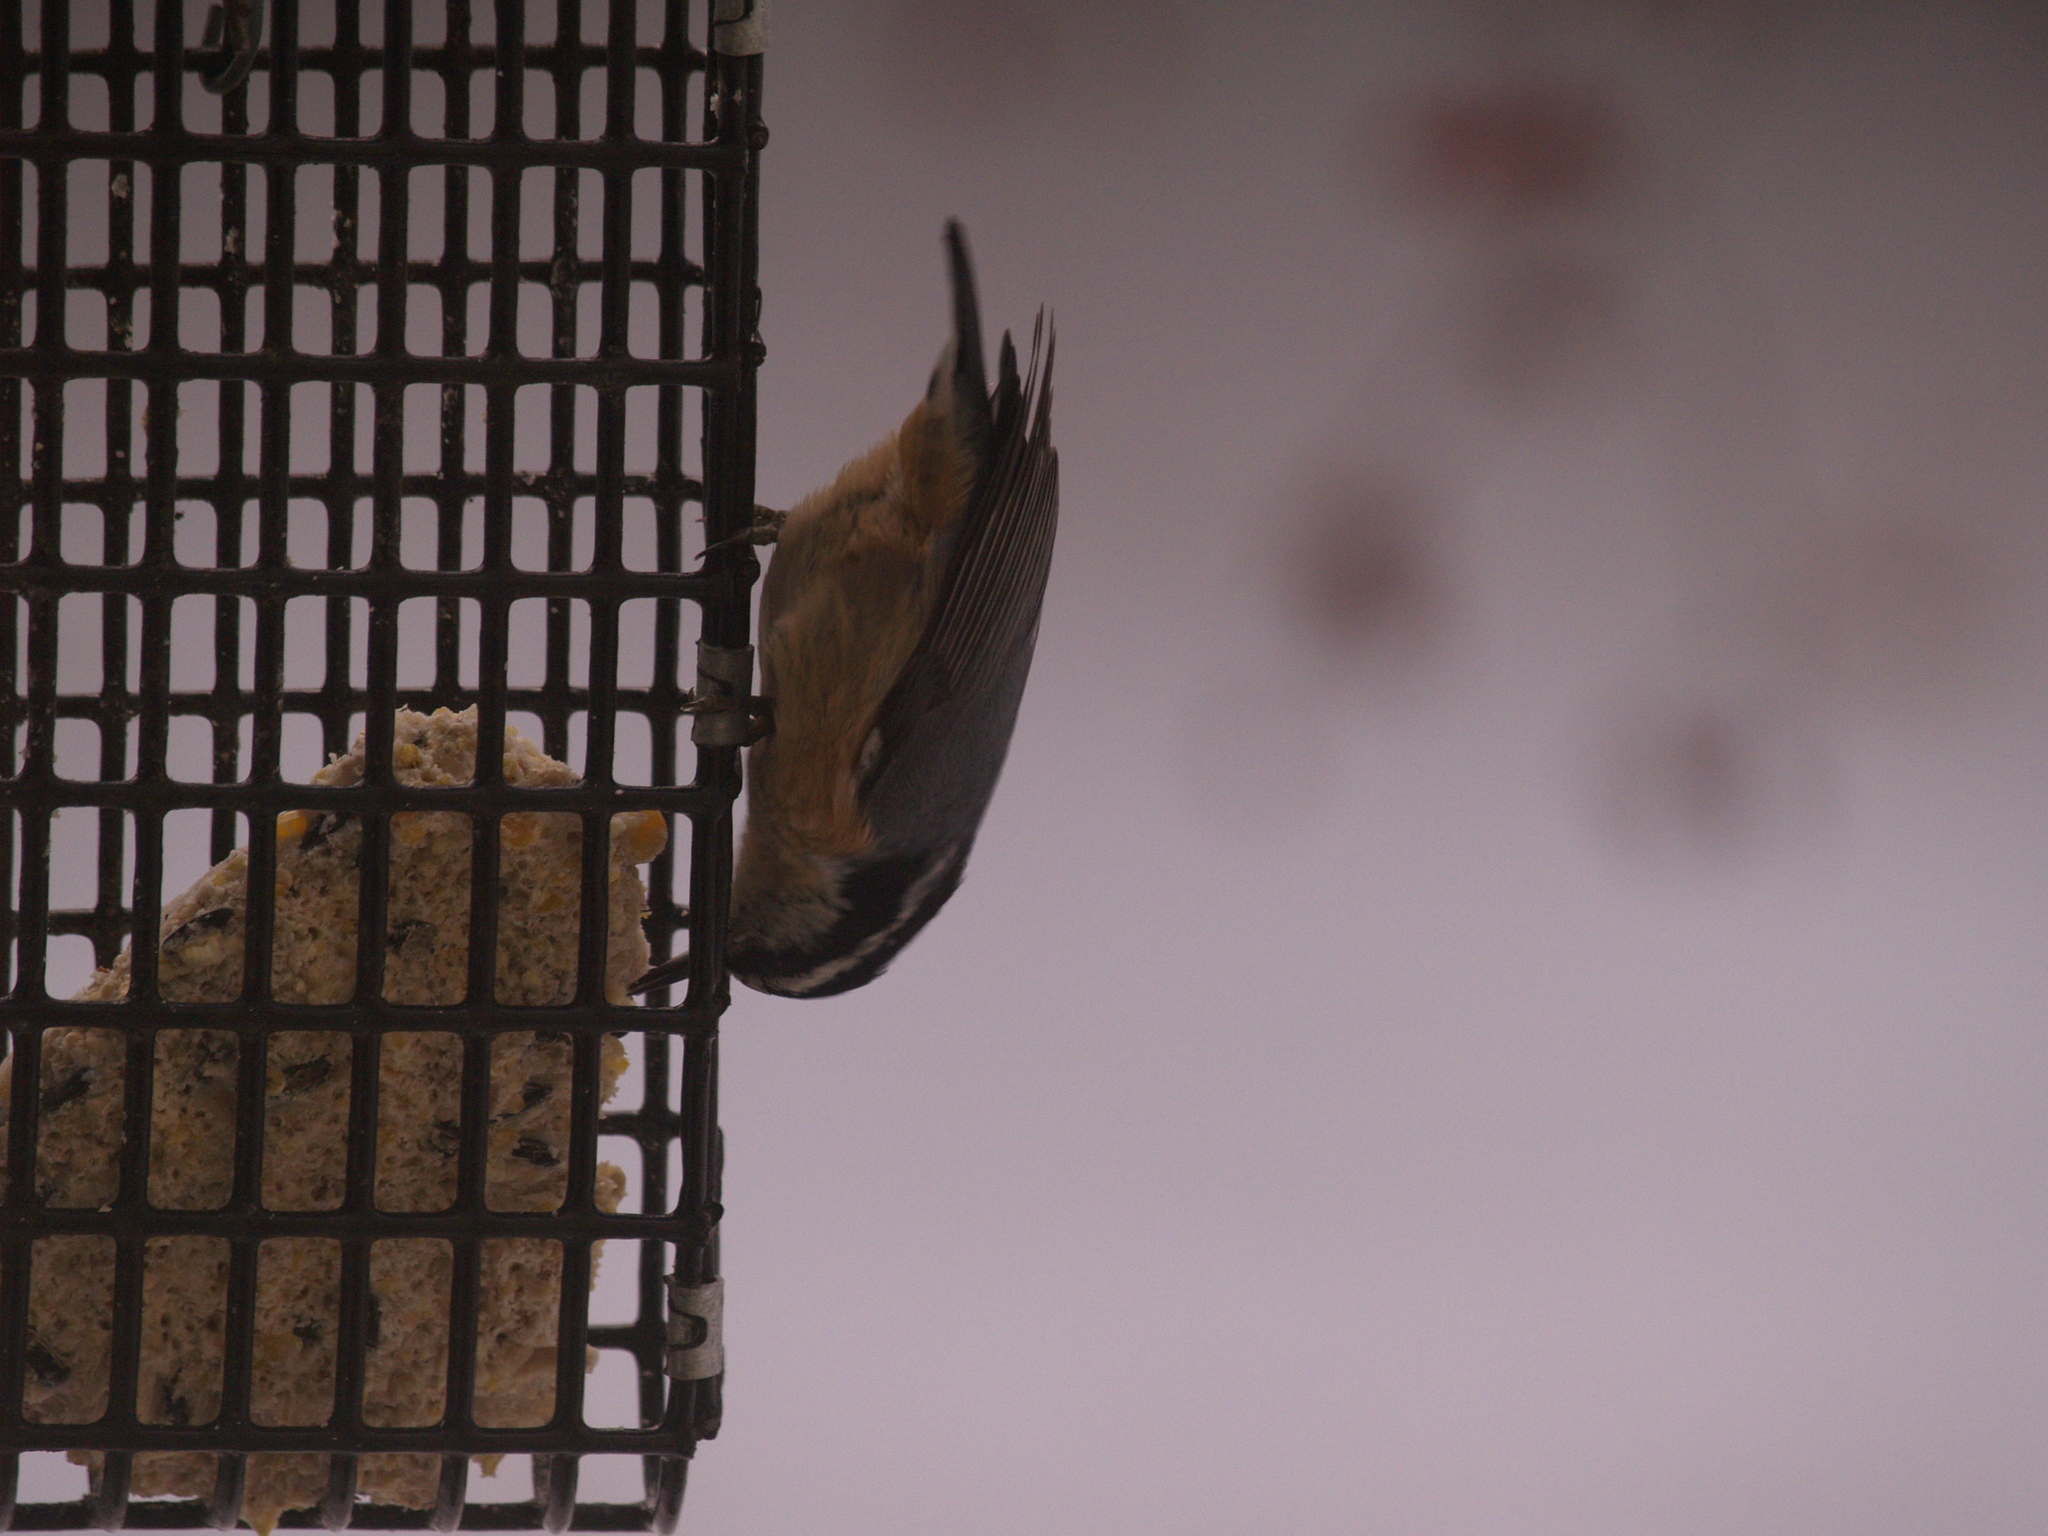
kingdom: Animalia
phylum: Chordata
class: Aves
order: Passeriformes
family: Sittidae
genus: Sitta
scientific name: Sitta canadensis
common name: Red-breasted nuthatch
